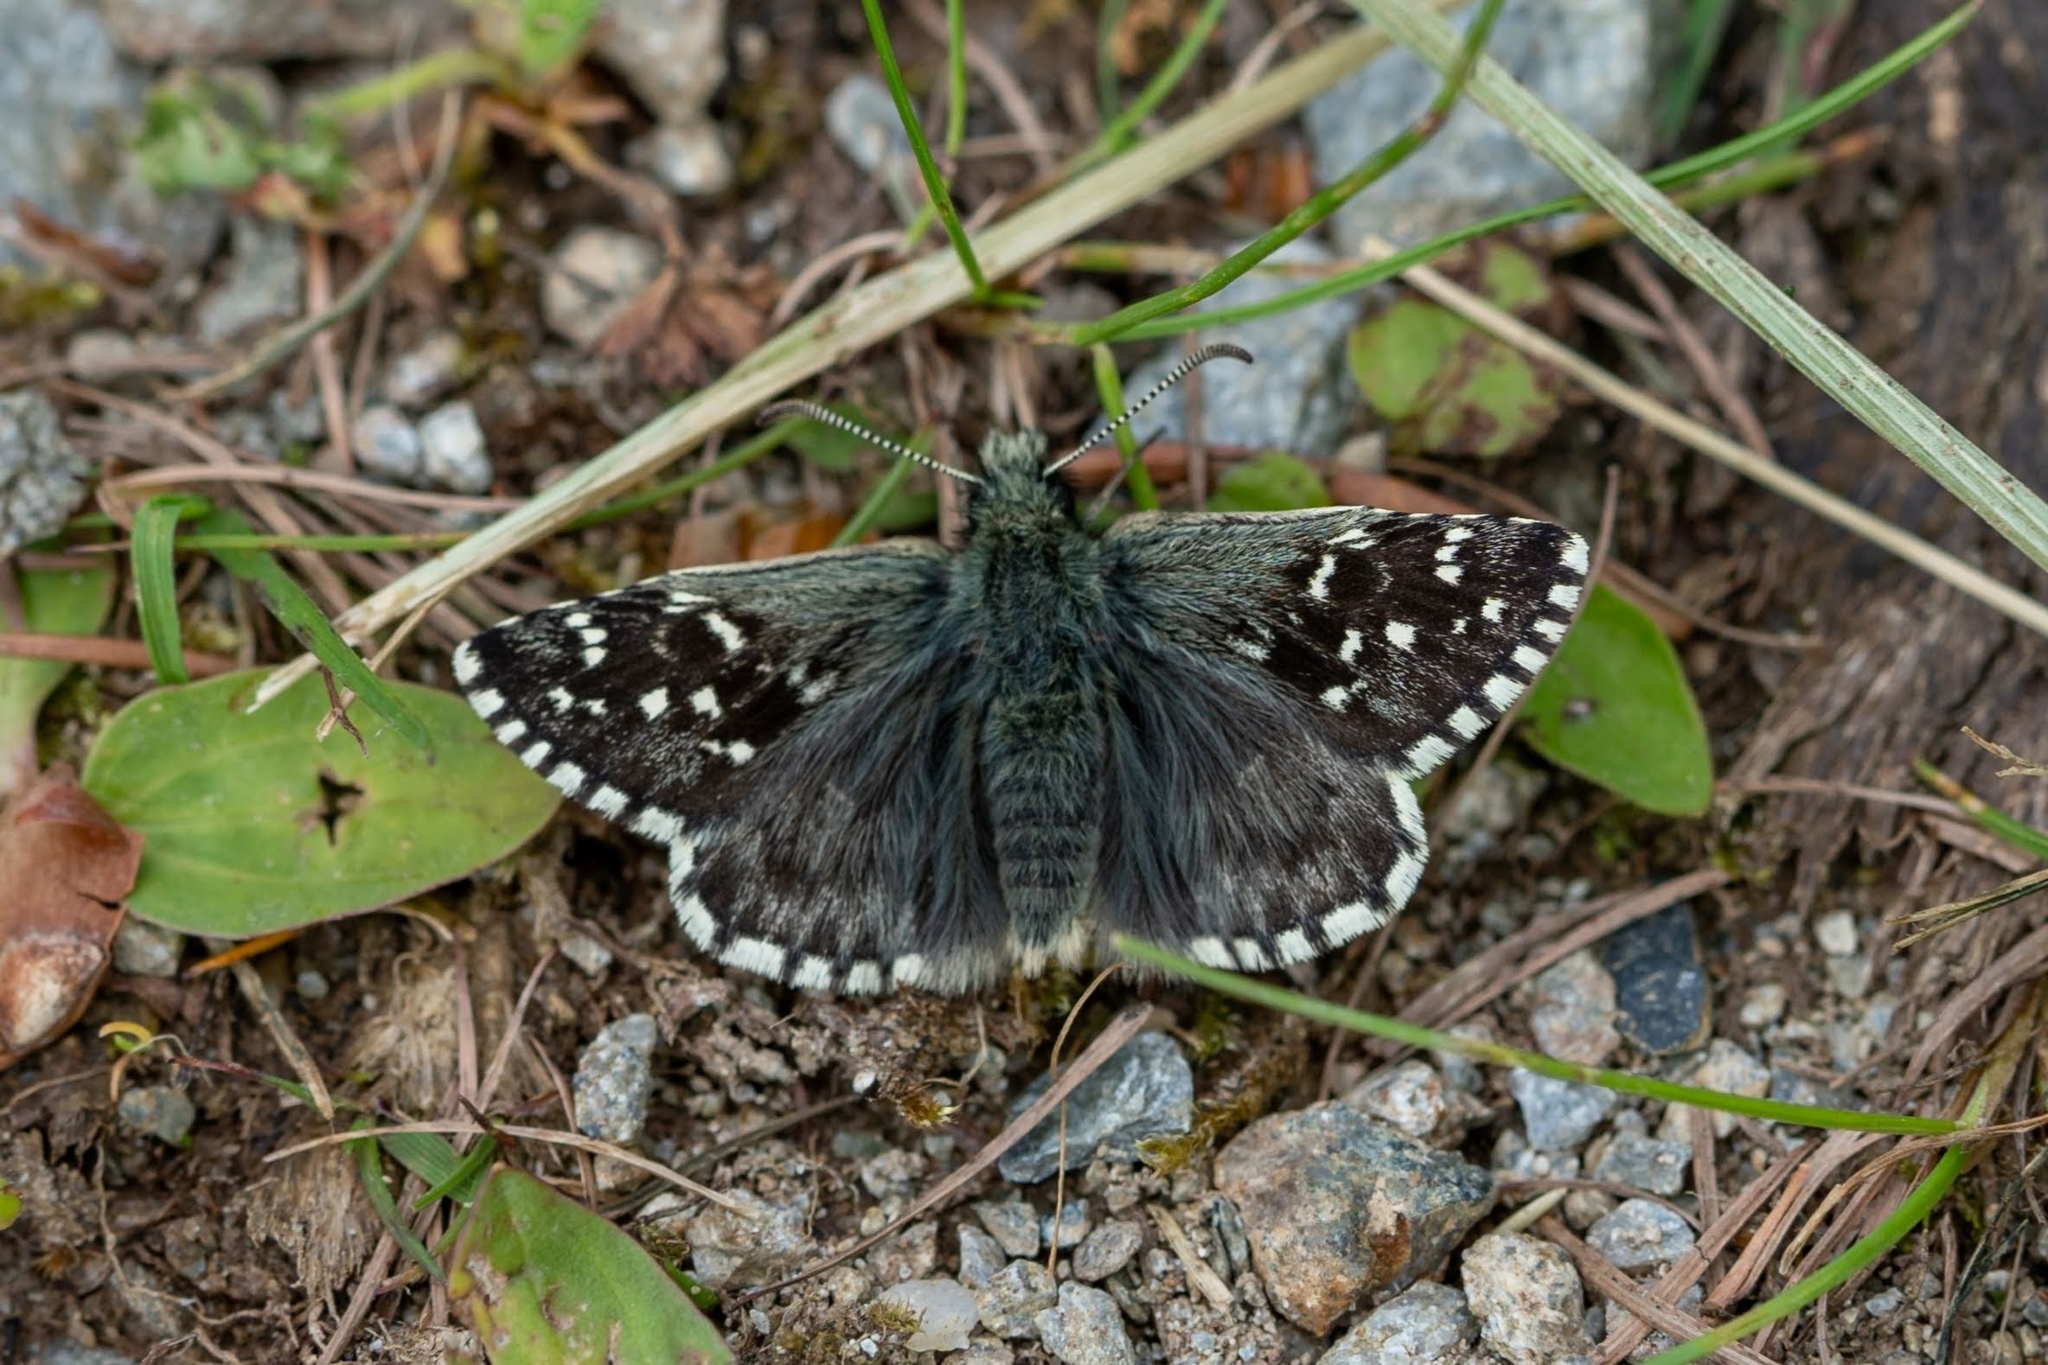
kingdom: Animalia
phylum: Arthropoda
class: Insecta
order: Lepidoptera
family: Hesperiidae
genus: Pyrgus
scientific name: Pyrgus andromedae
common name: Alpine grizzled skipper
